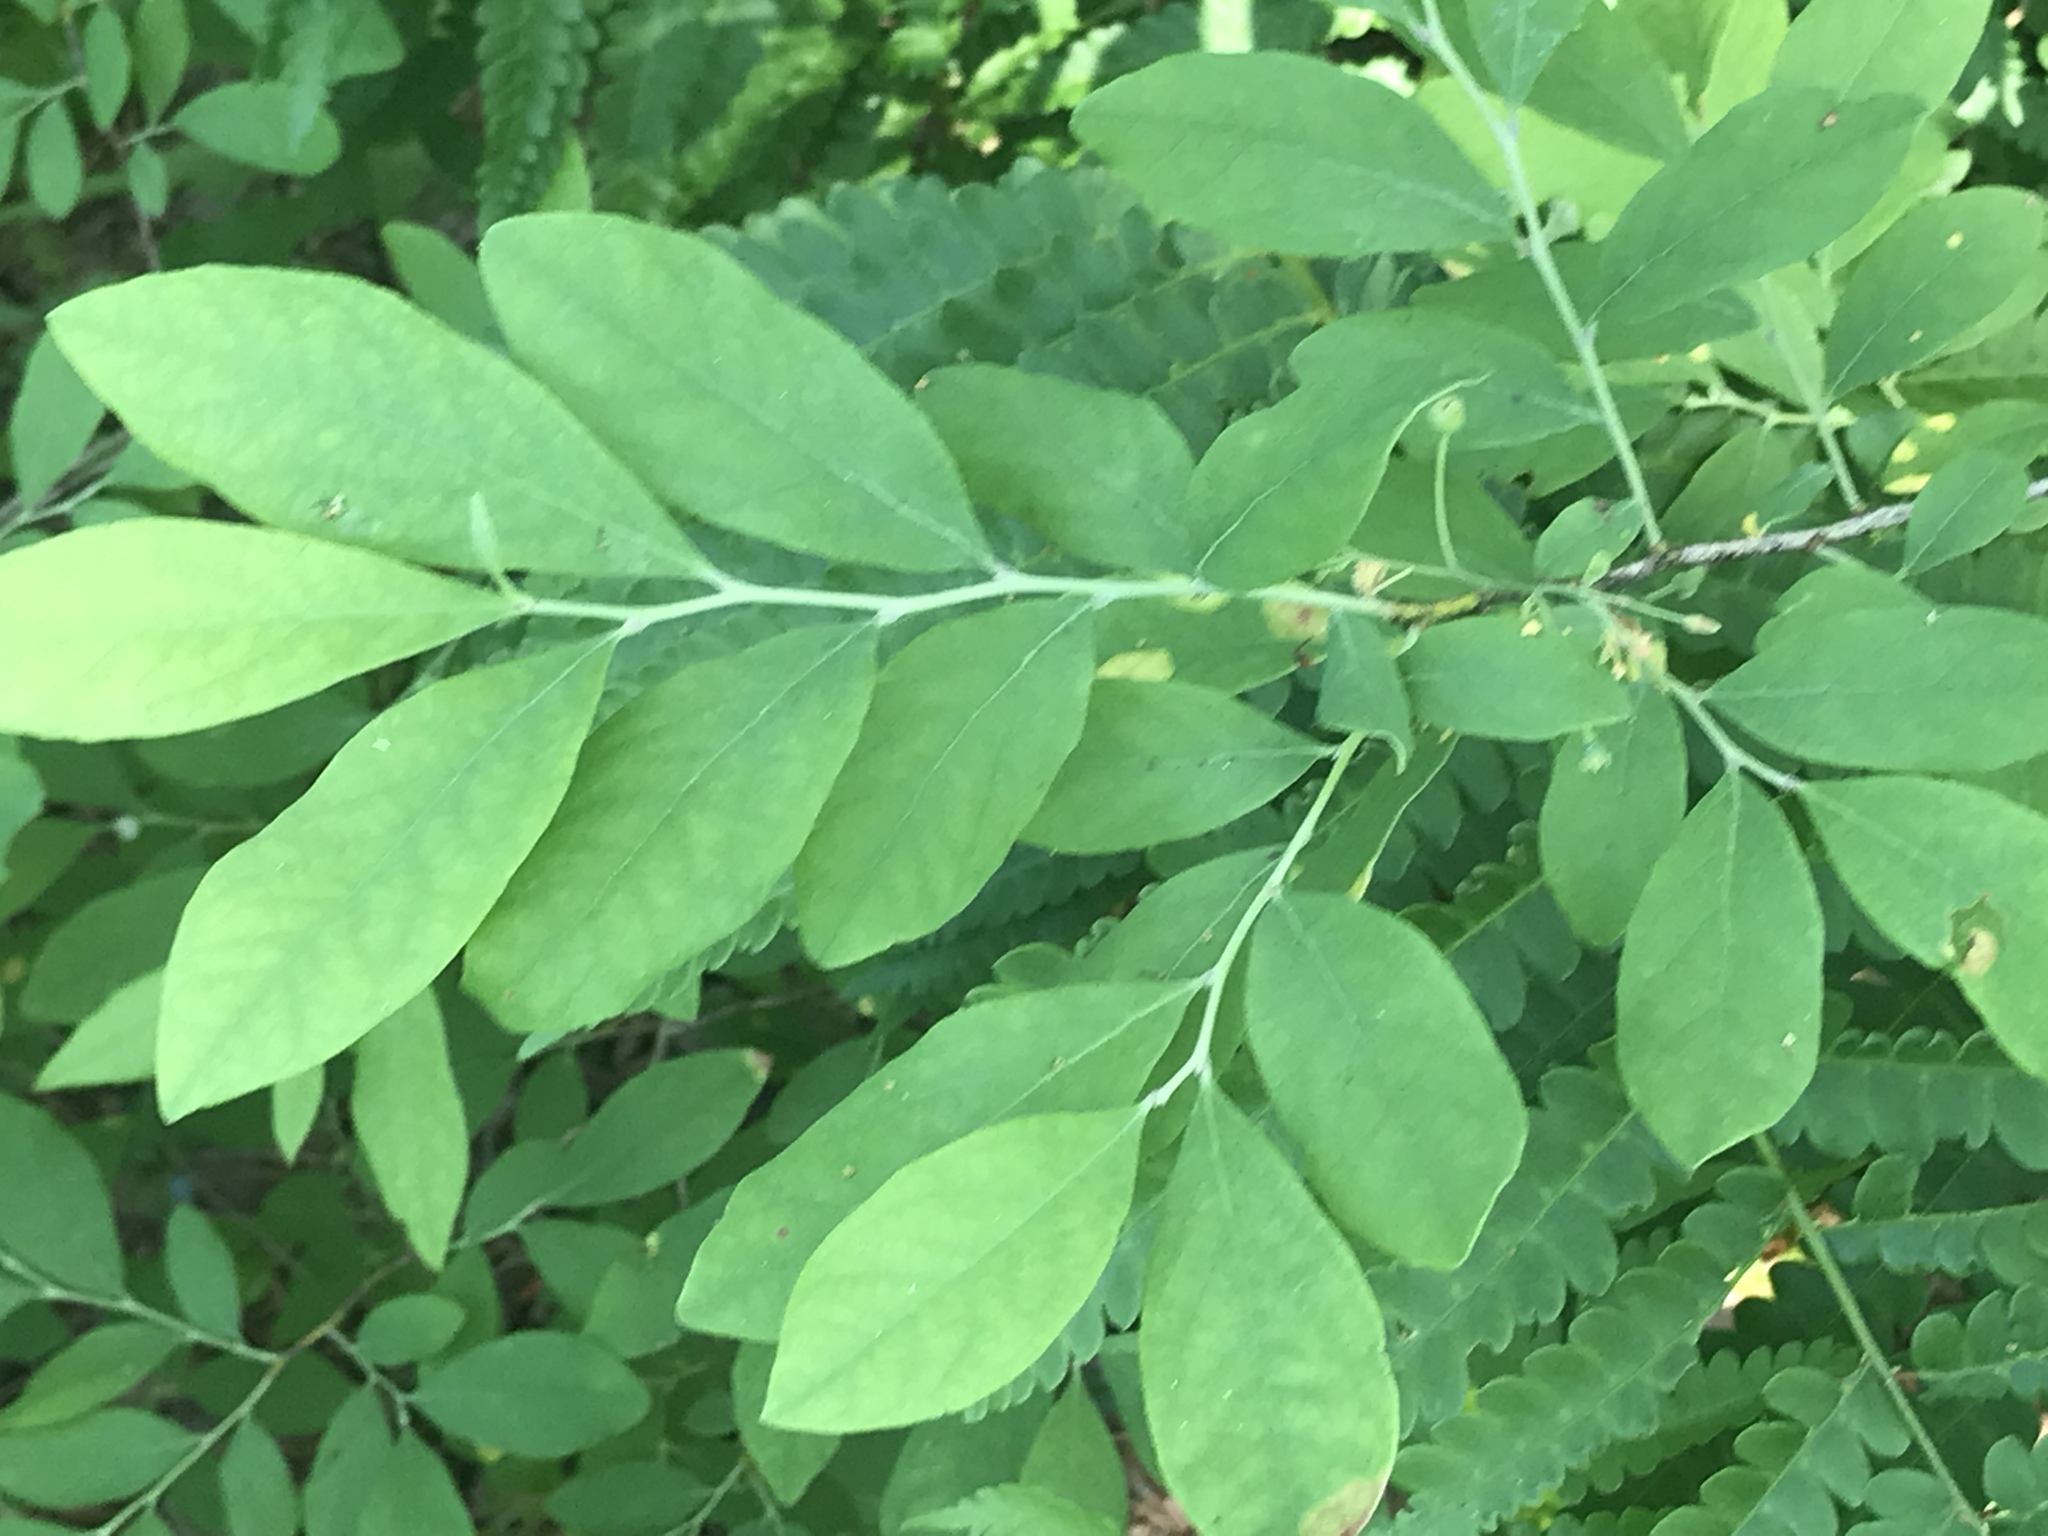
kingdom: Plantae
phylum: Tracheophyta
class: Magnoliopsida
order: Ericales
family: Ericaceae
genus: Gaylussacia
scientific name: Gaylussacia frondosa
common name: Dangleberry
